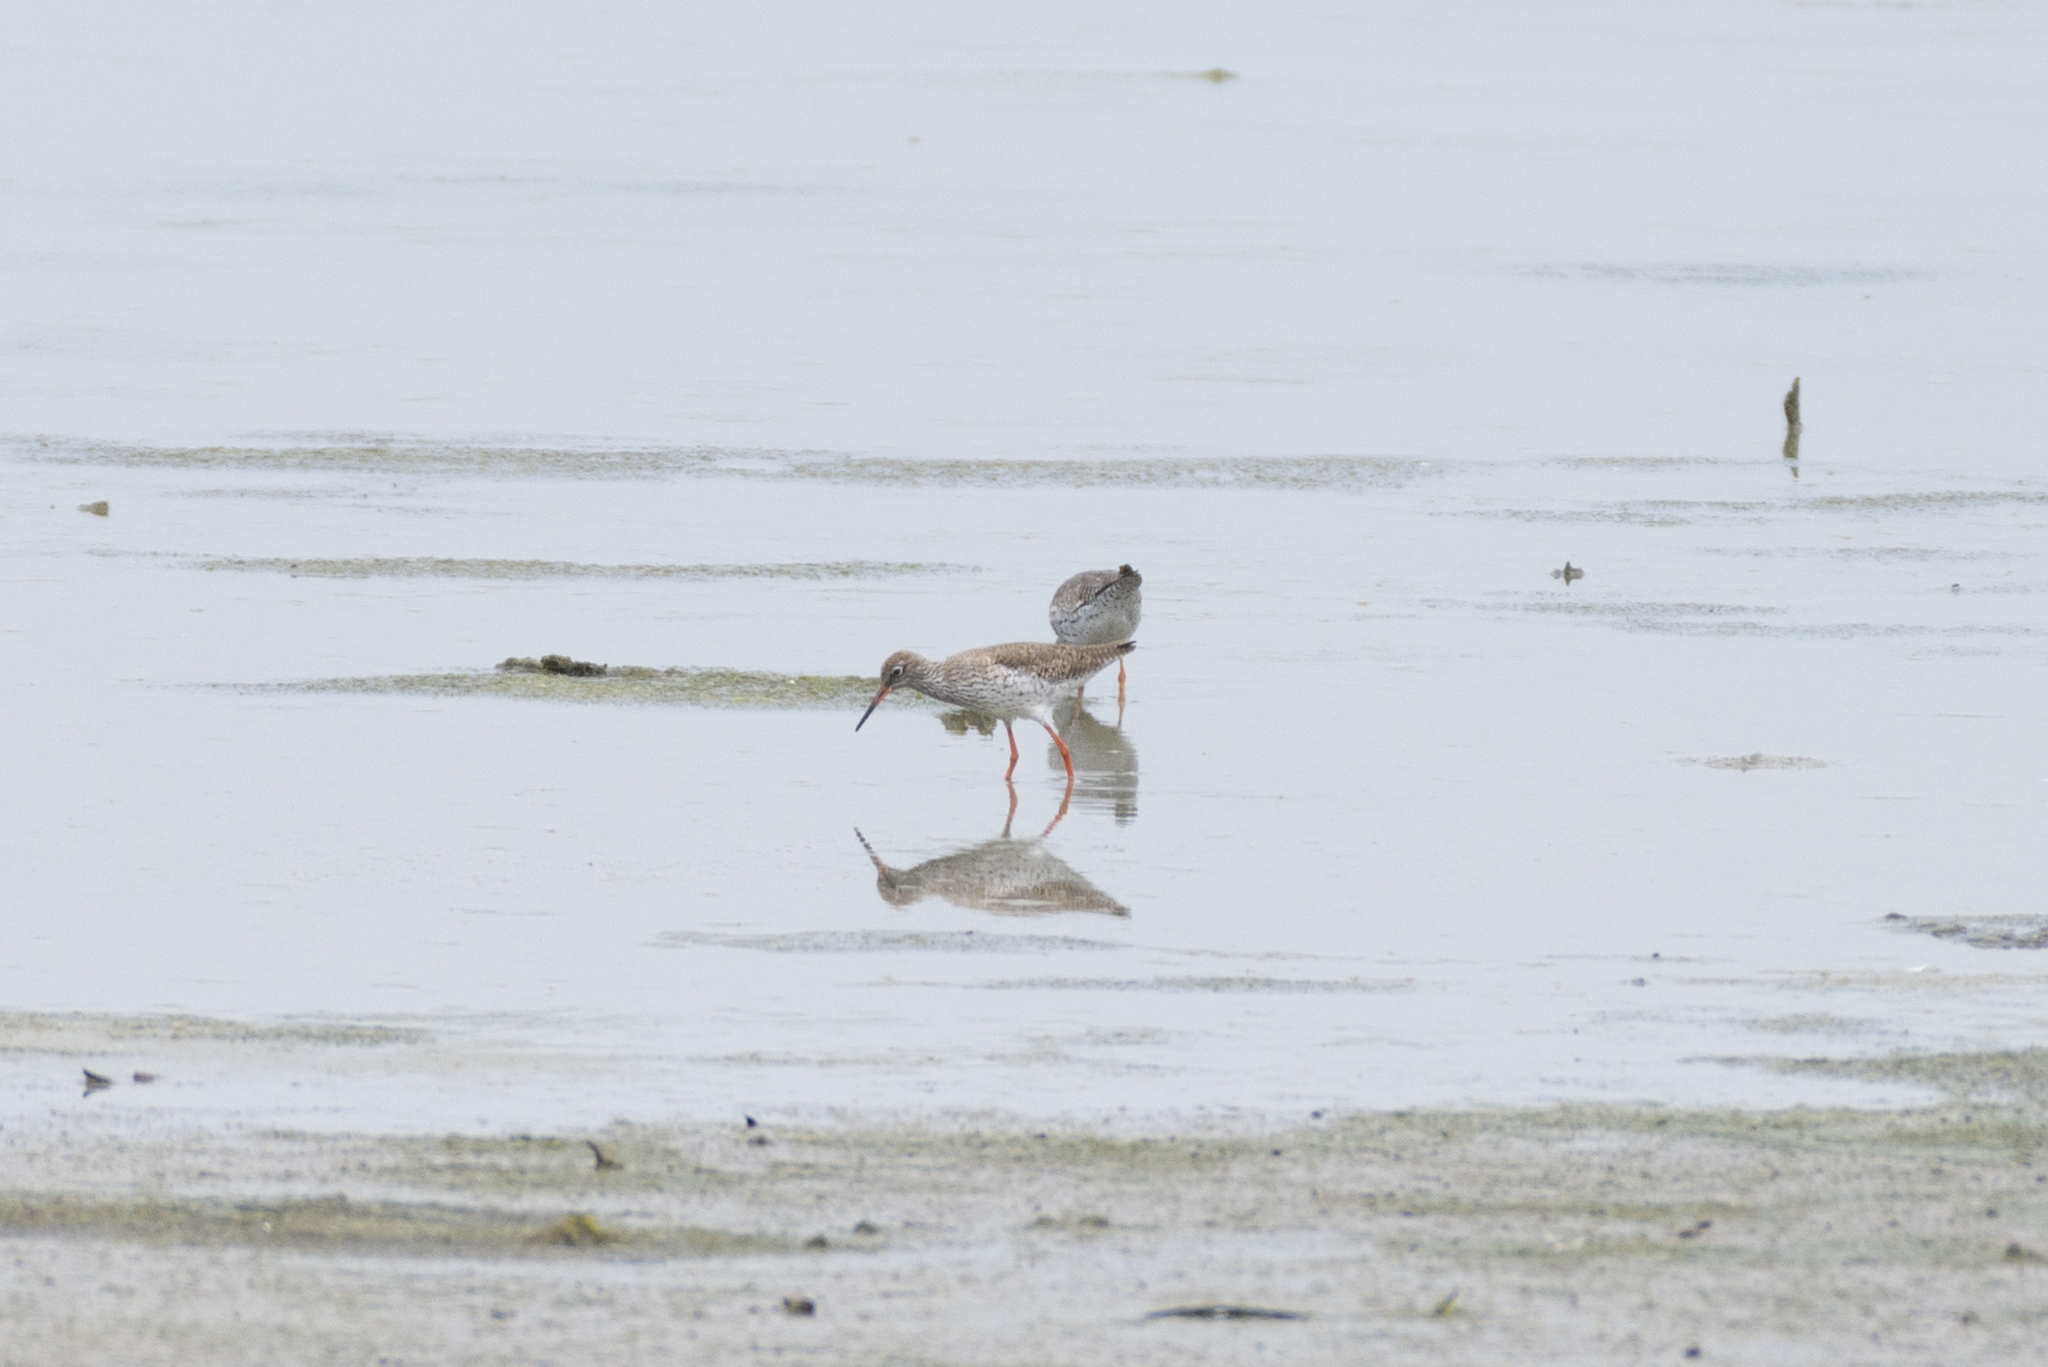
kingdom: Animalia
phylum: Chordata
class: Aves
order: Charadriiformes
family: Scolopacidae
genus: Tringa
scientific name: Tringa totanus
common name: Common redshank
